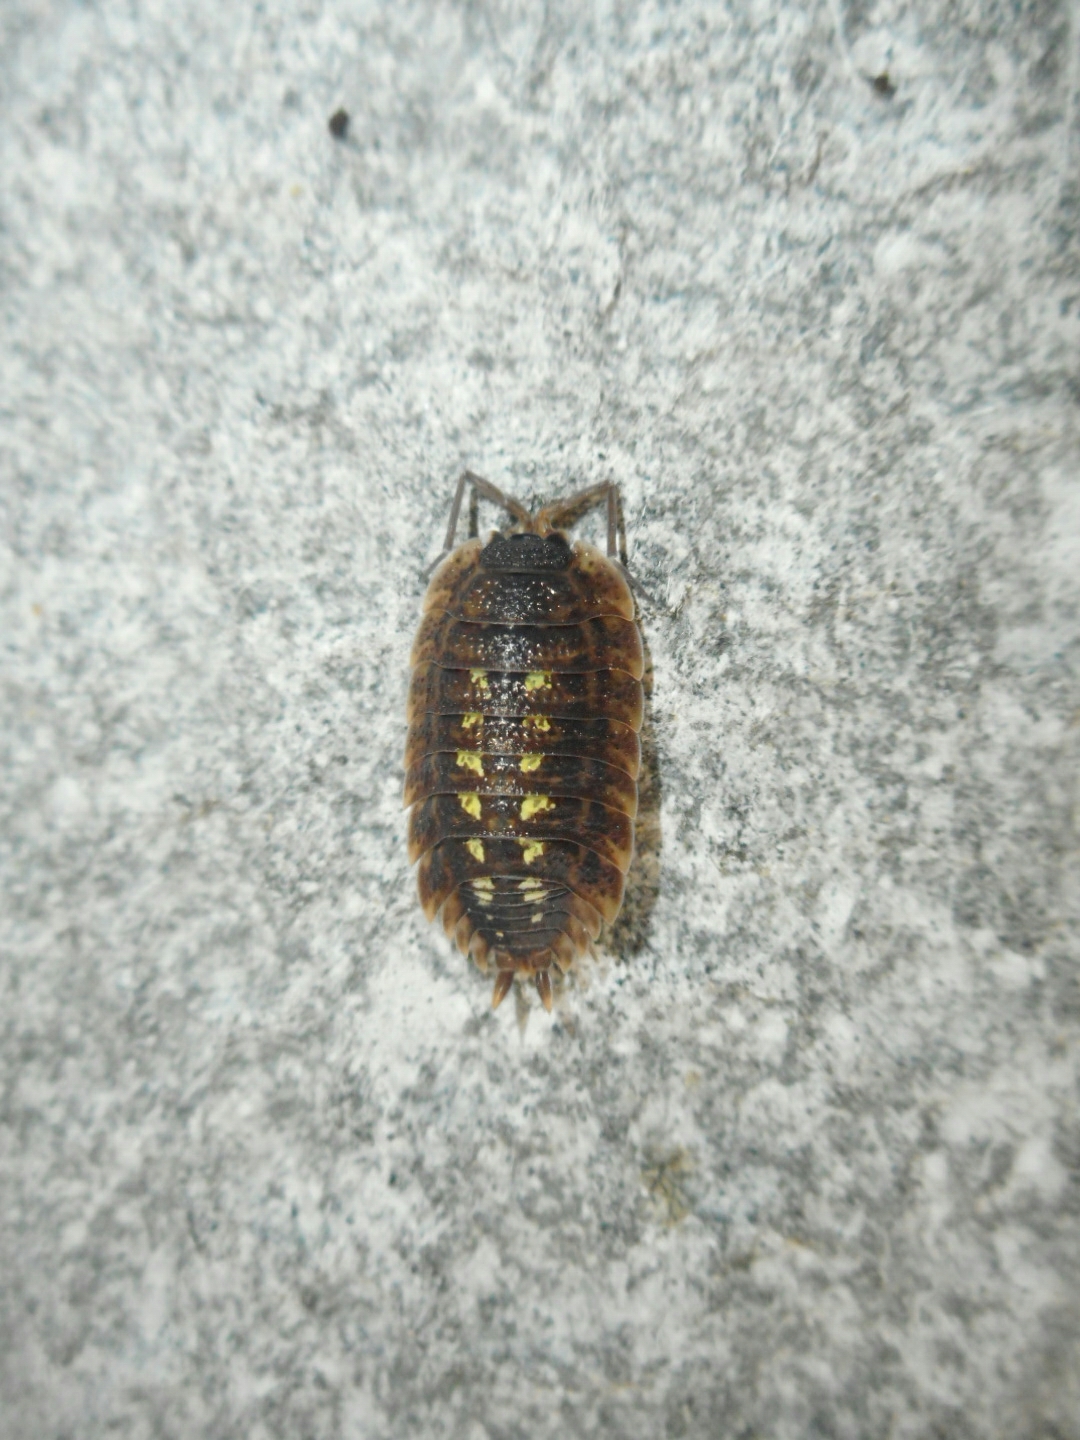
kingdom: Animalia
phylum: Arthropoda
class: Malacostraca
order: Isopoda
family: Porcellionidae
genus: Porcellio
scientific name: Porcellio spinicornis
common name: Painted woodlouse
